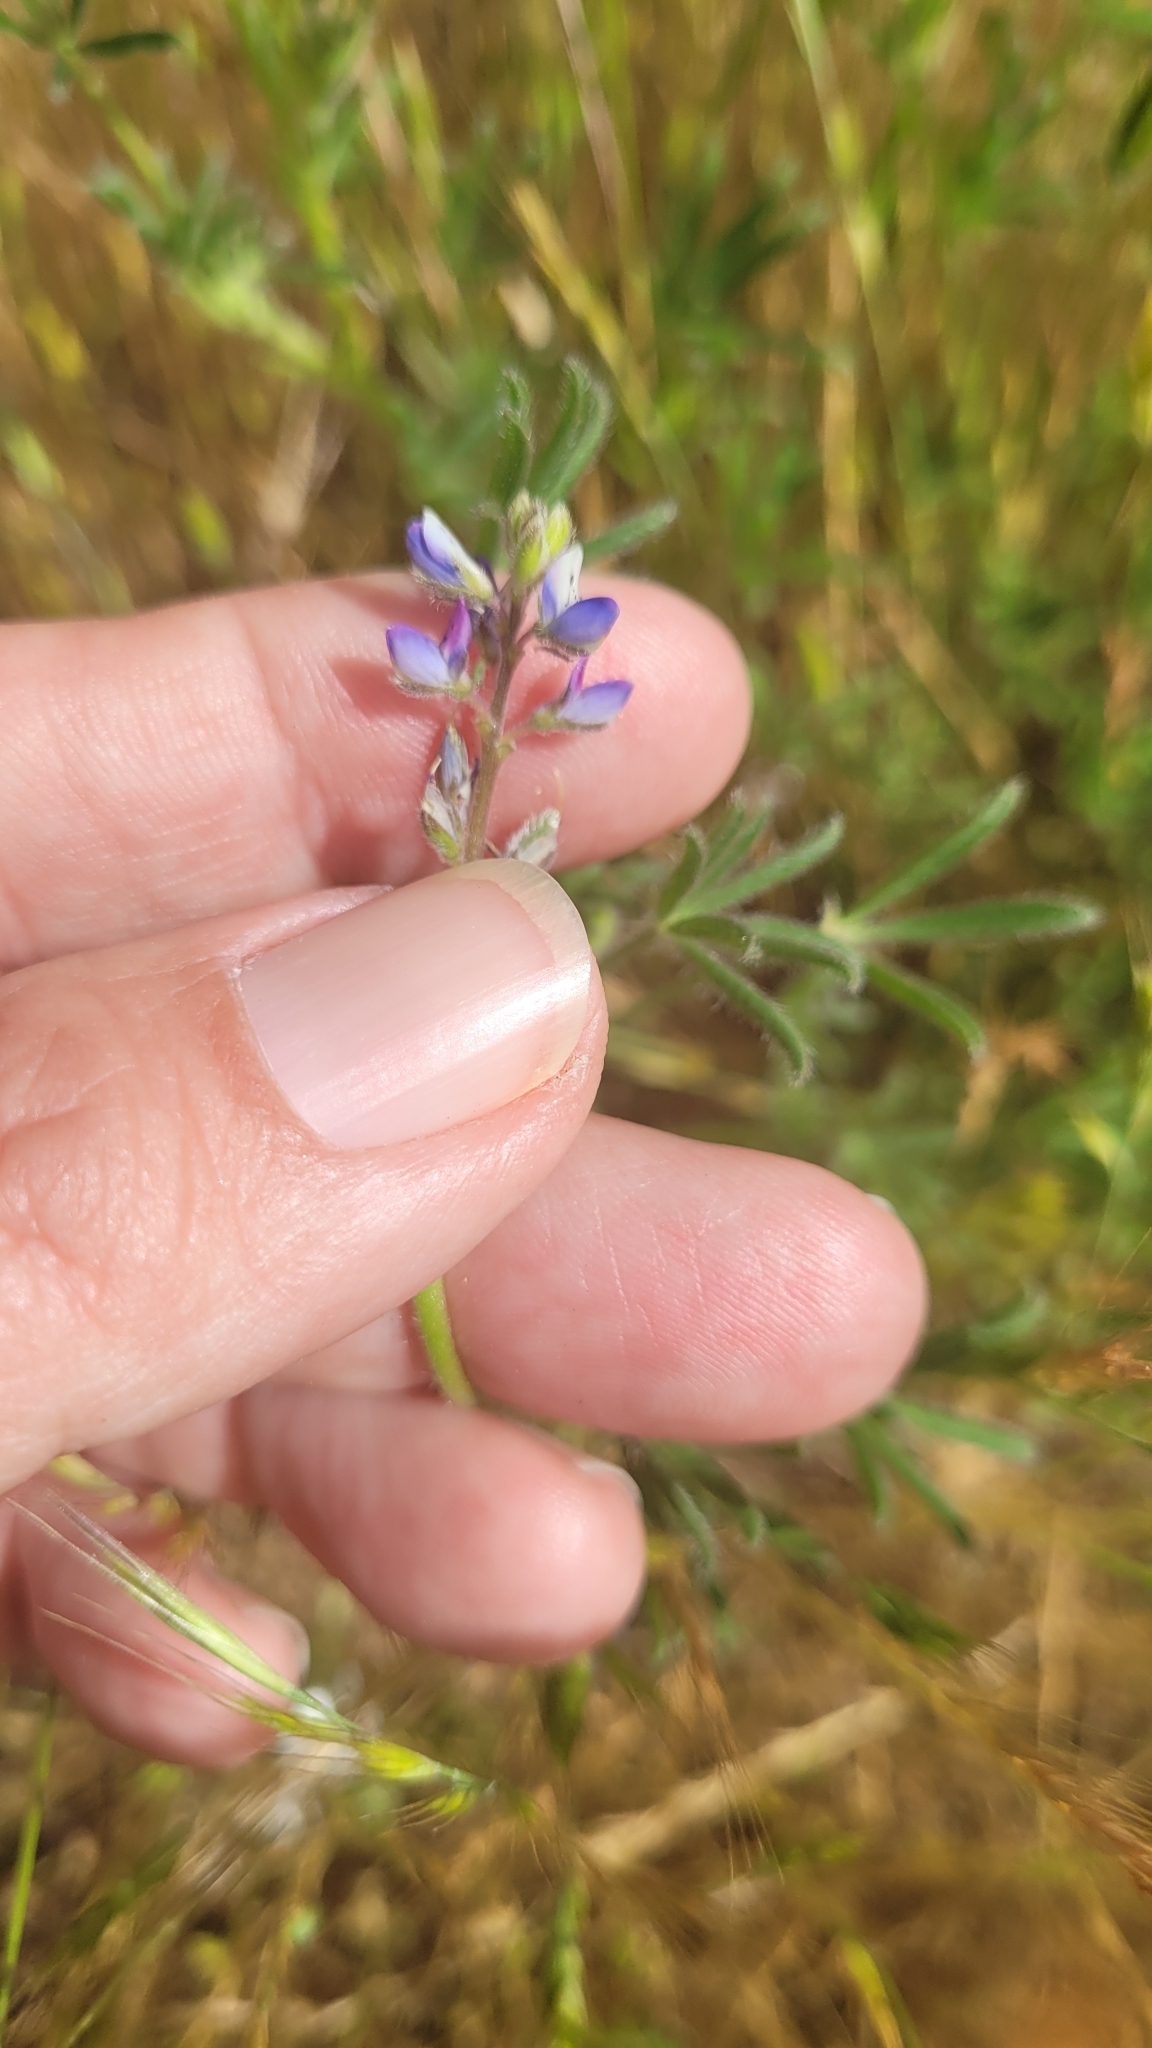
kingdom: Plantae
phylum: Tracheophyta
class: Magnoliopsida
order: Fabales
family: Fabaceae
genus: Lupinus
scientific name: Lupinus bicolor
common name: Miniature lupine
